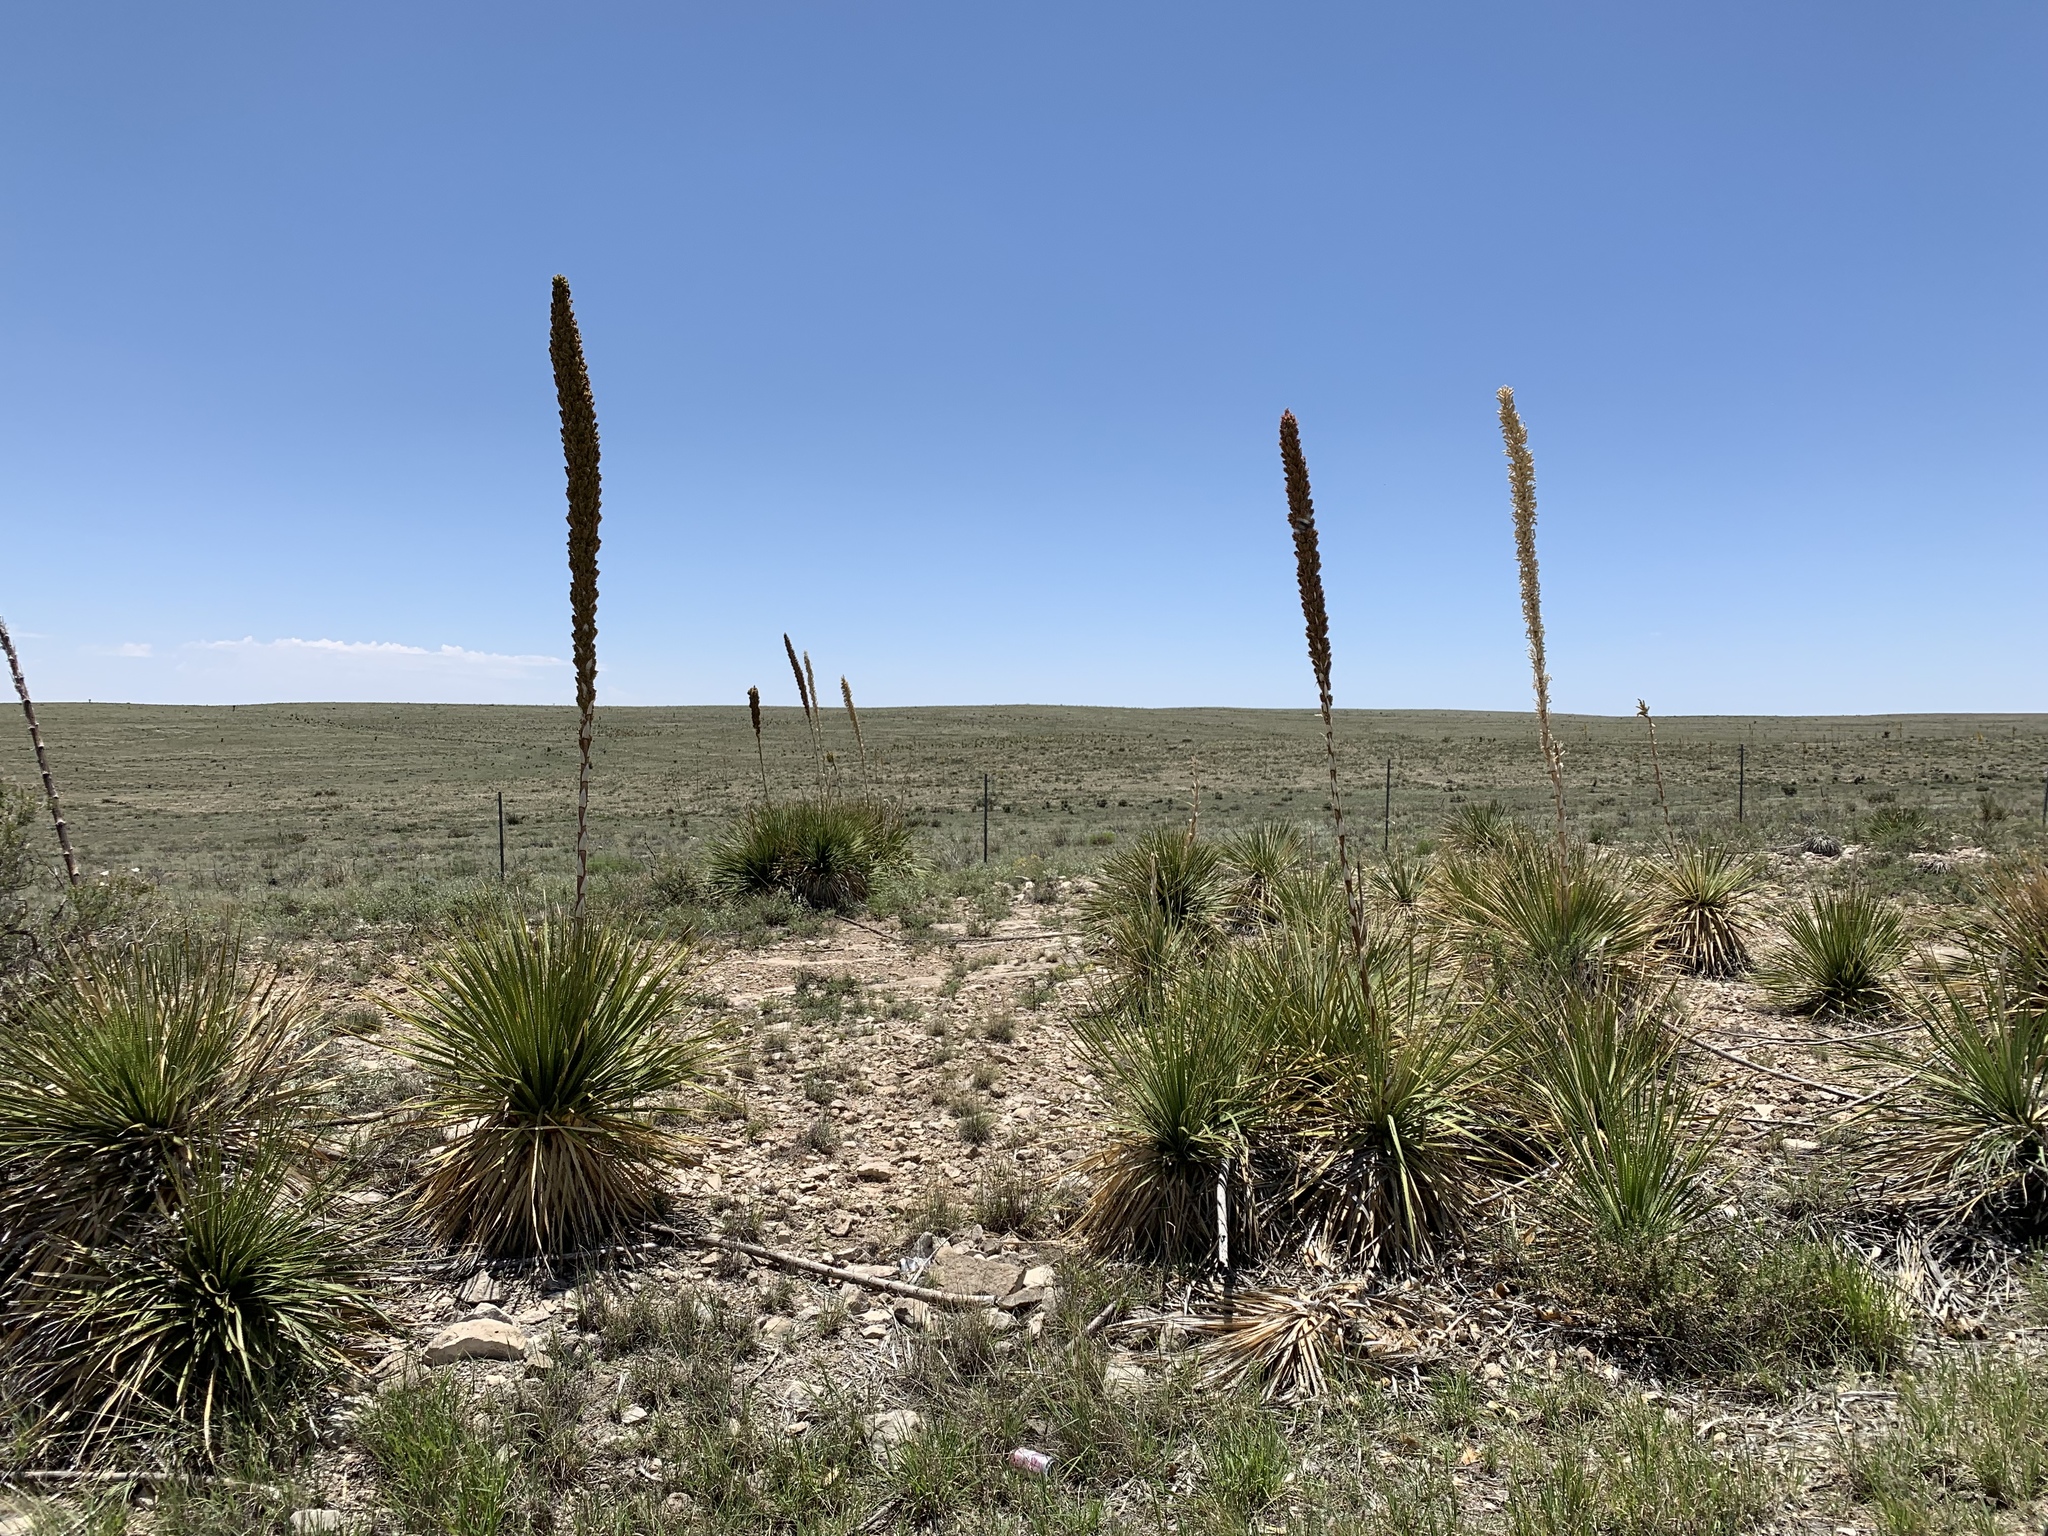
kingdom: Plantae
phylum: Tracheophyta
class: Liliopsida
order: Asparagales
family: Asparagaceae
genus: Dasylirion
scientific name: Dasylirion wheeleri
